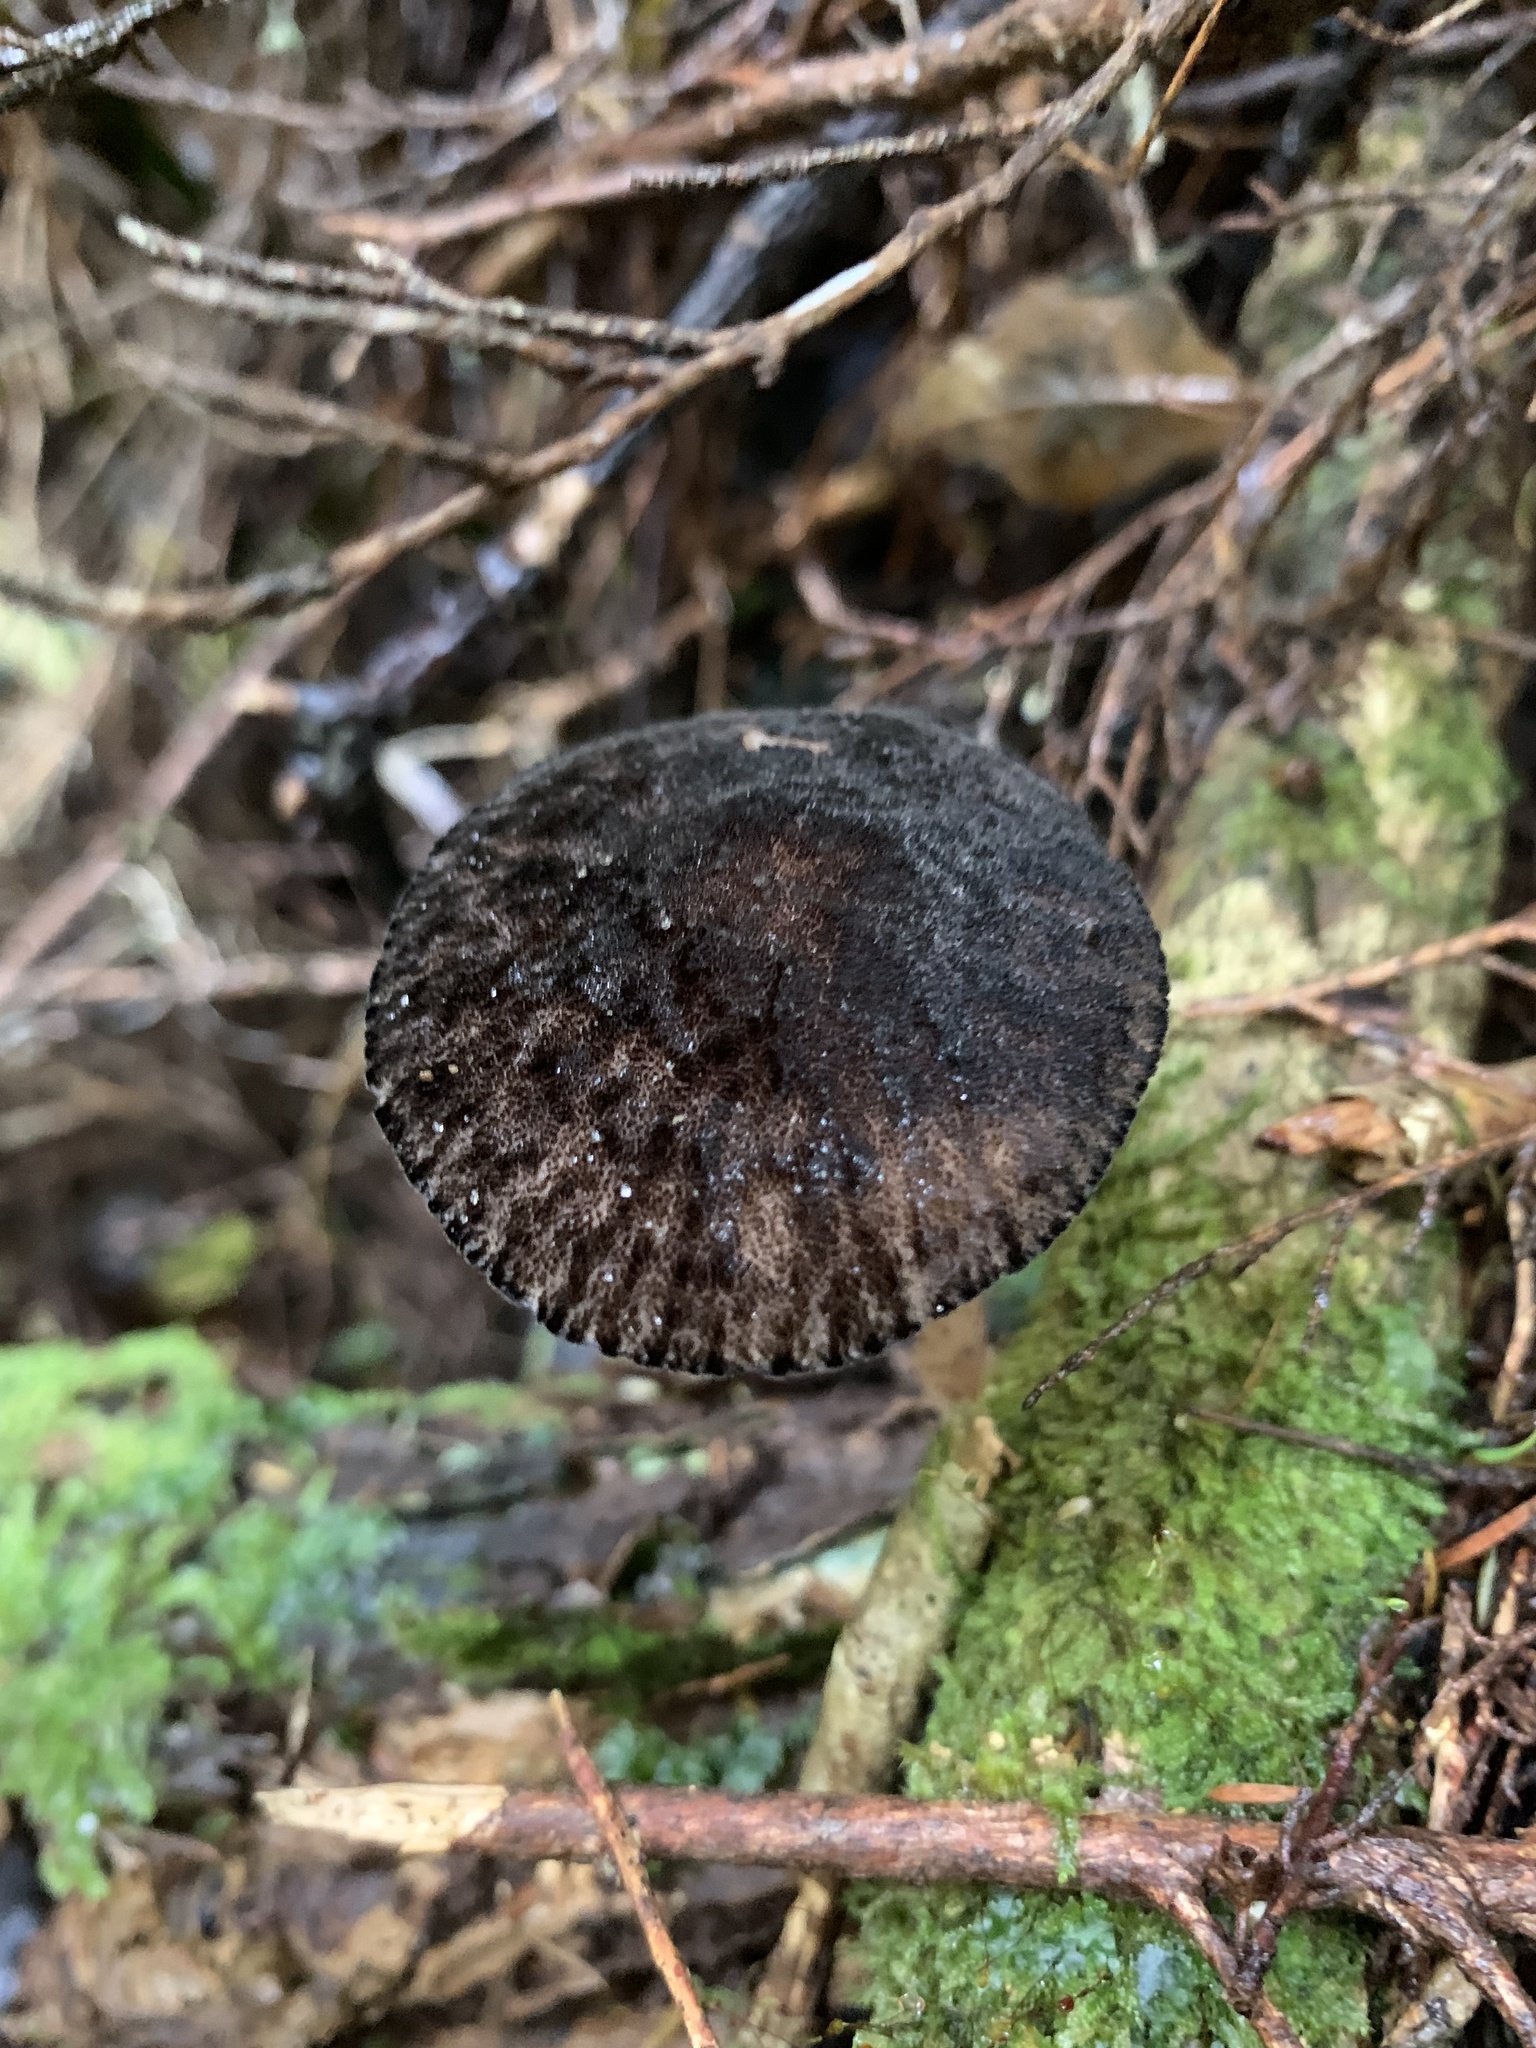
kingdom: Fungi
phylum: Basidiomycota
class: Agaricomycetes
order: Agaricales
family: Pluteaceae
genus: Pluteus
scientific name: Pluteus perroseus
